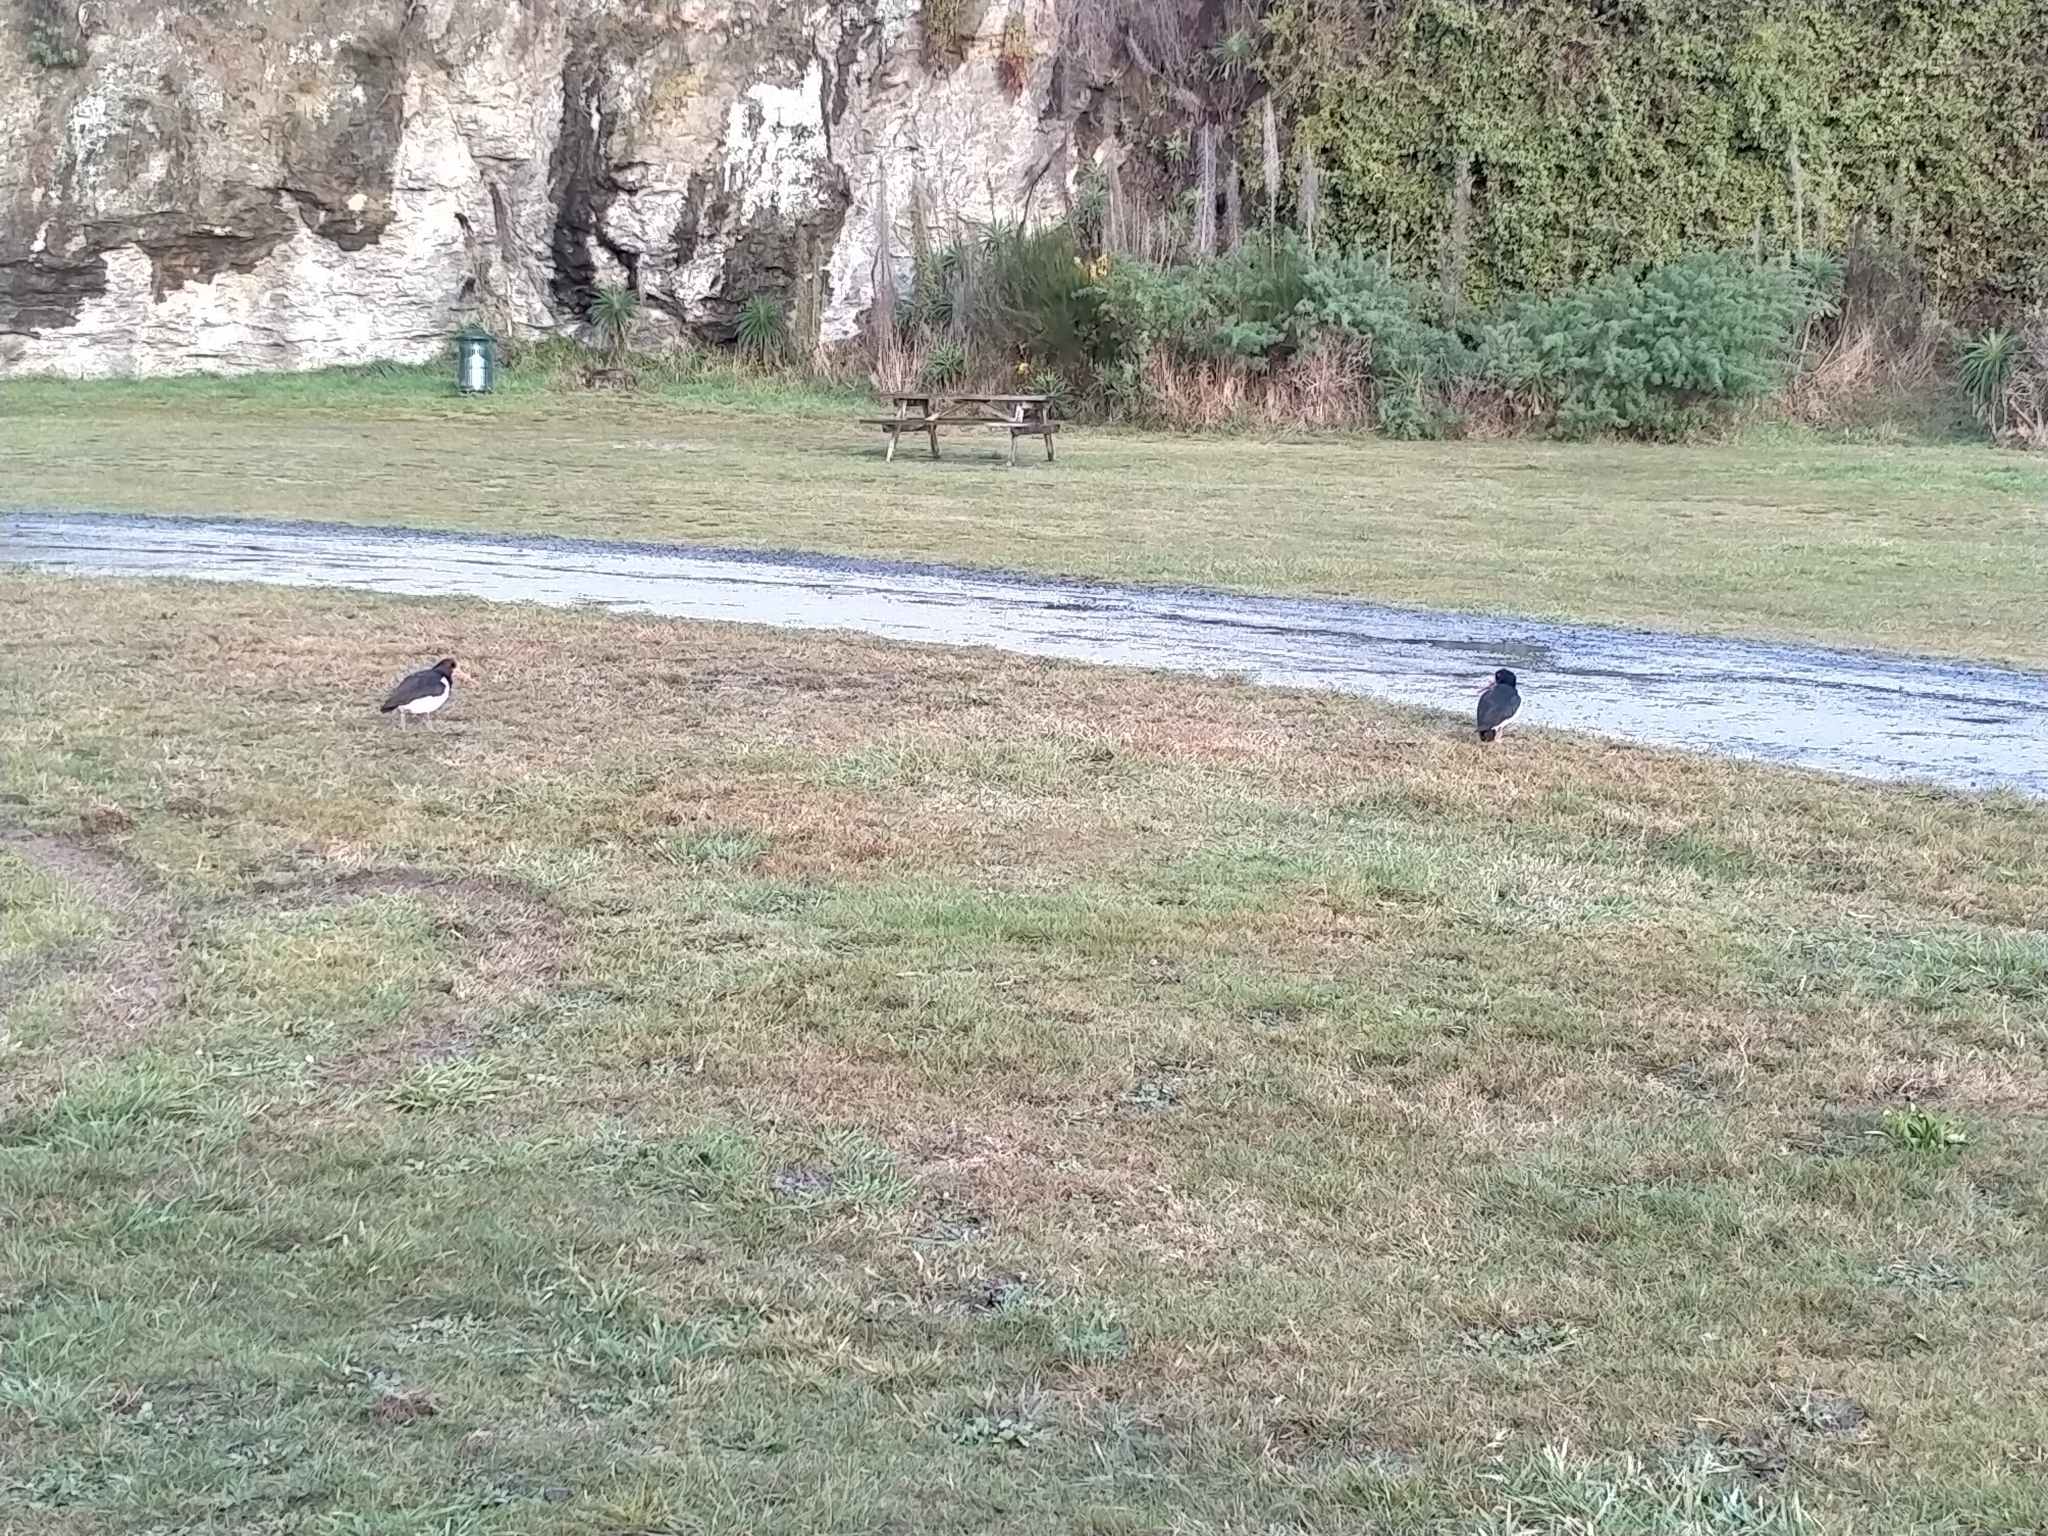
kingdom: Animalia
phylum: Chordata
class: Aves
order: Charadriiformes
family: Haematopodidae
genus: Haematopus
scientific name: Haematopus finschi
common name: South island oystercatcher
